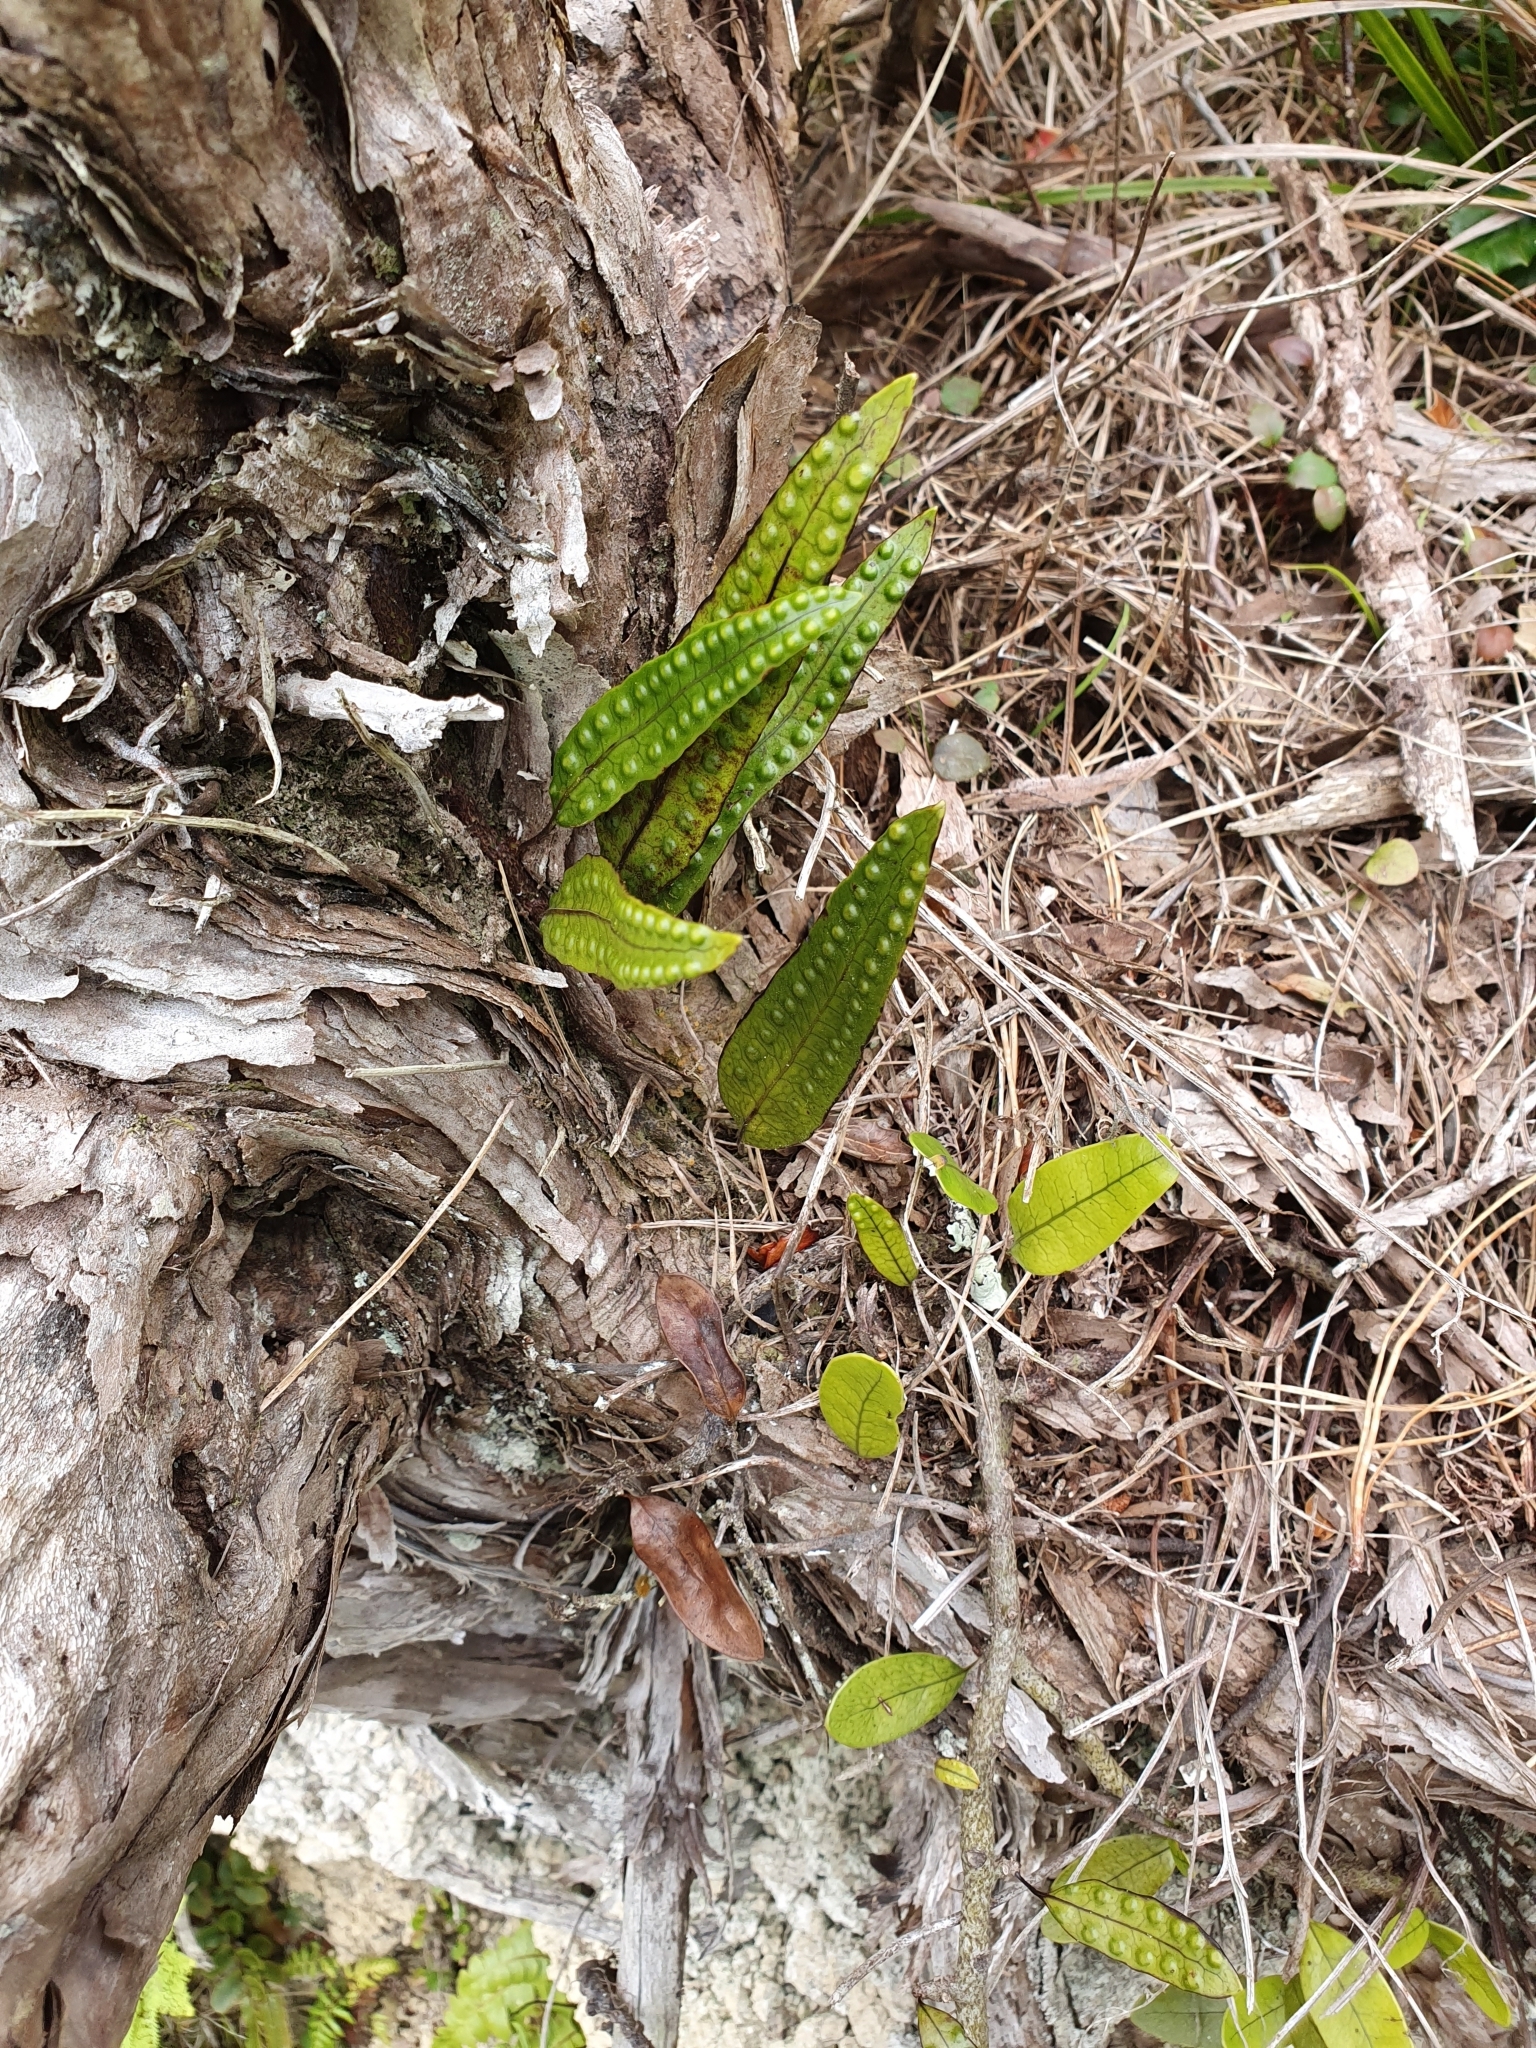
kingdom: Plantae
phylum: Tracheophyta
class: Polypodiopsida
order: Polypodiales
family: Polypodiaceae
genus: Lecanopteris
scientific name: Lecanopteris pustulata
